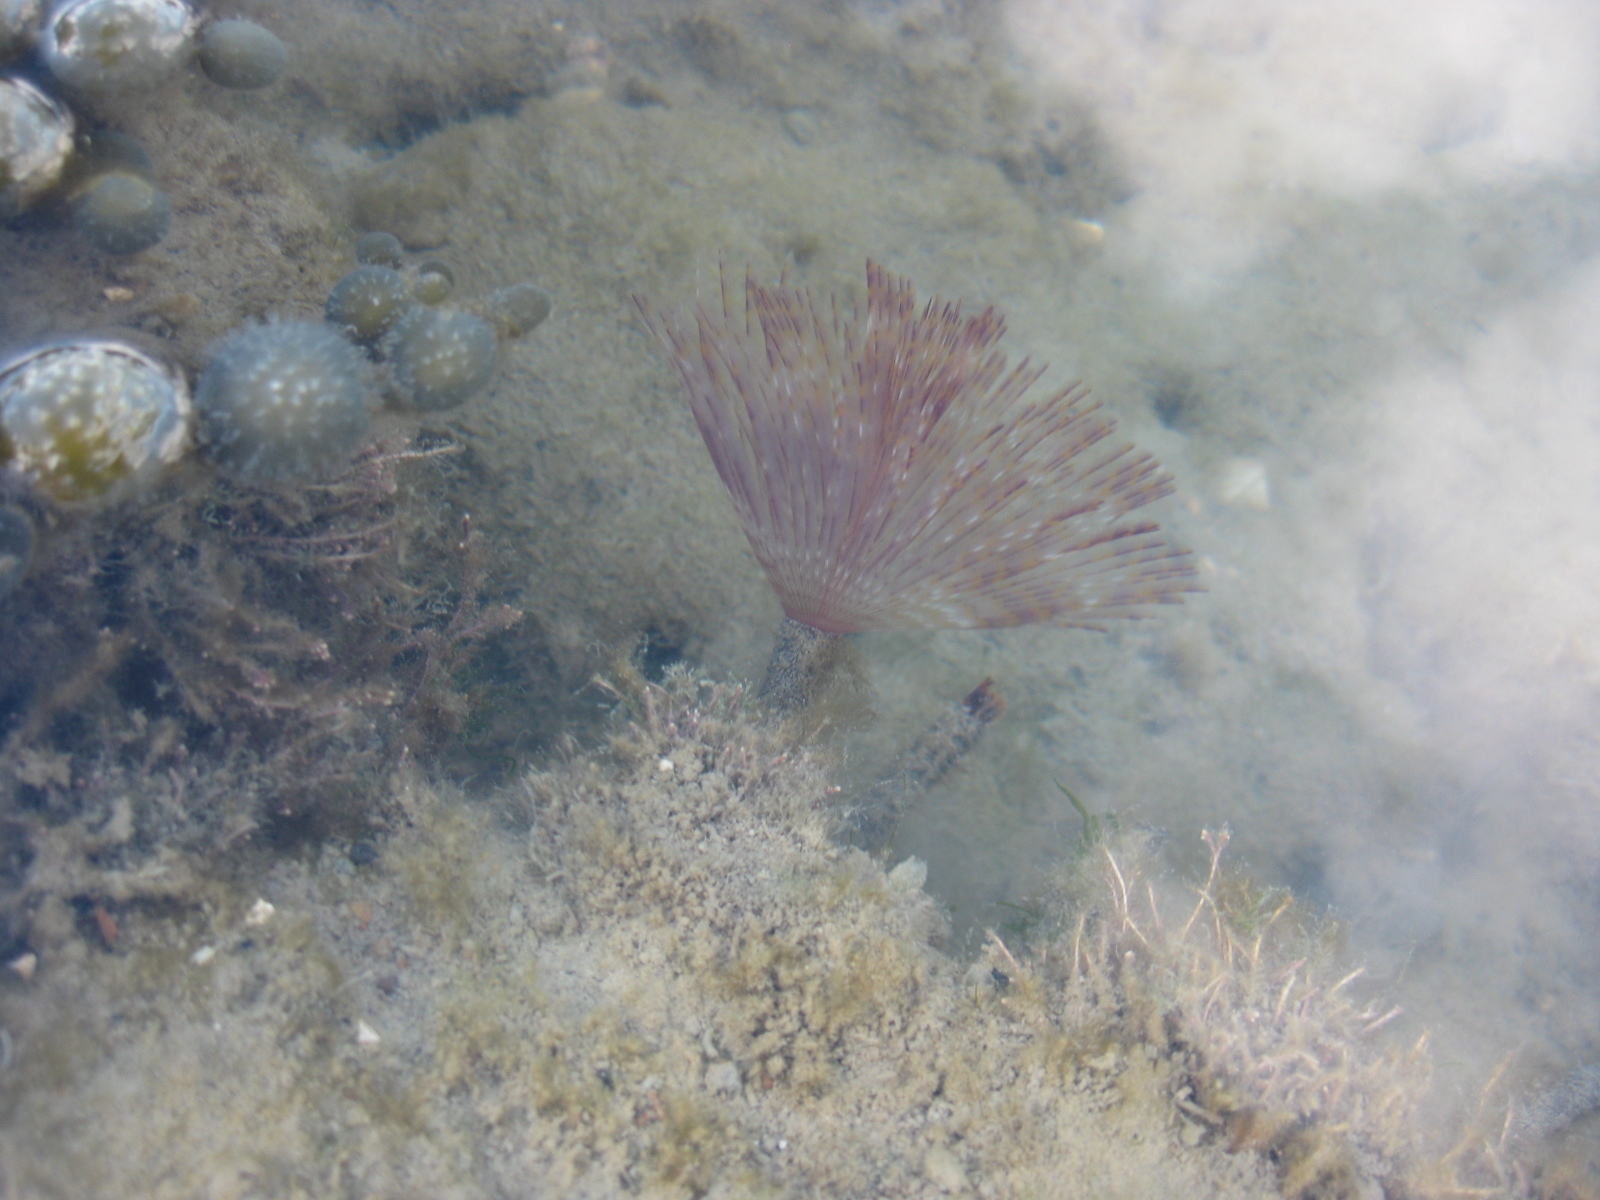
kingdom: Animalia
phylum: Annelida
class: Polychaeta
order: Sabellida
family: Sabellidae
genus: Sabella
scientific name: Sabella spallanzanii
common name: Feather duster worm
